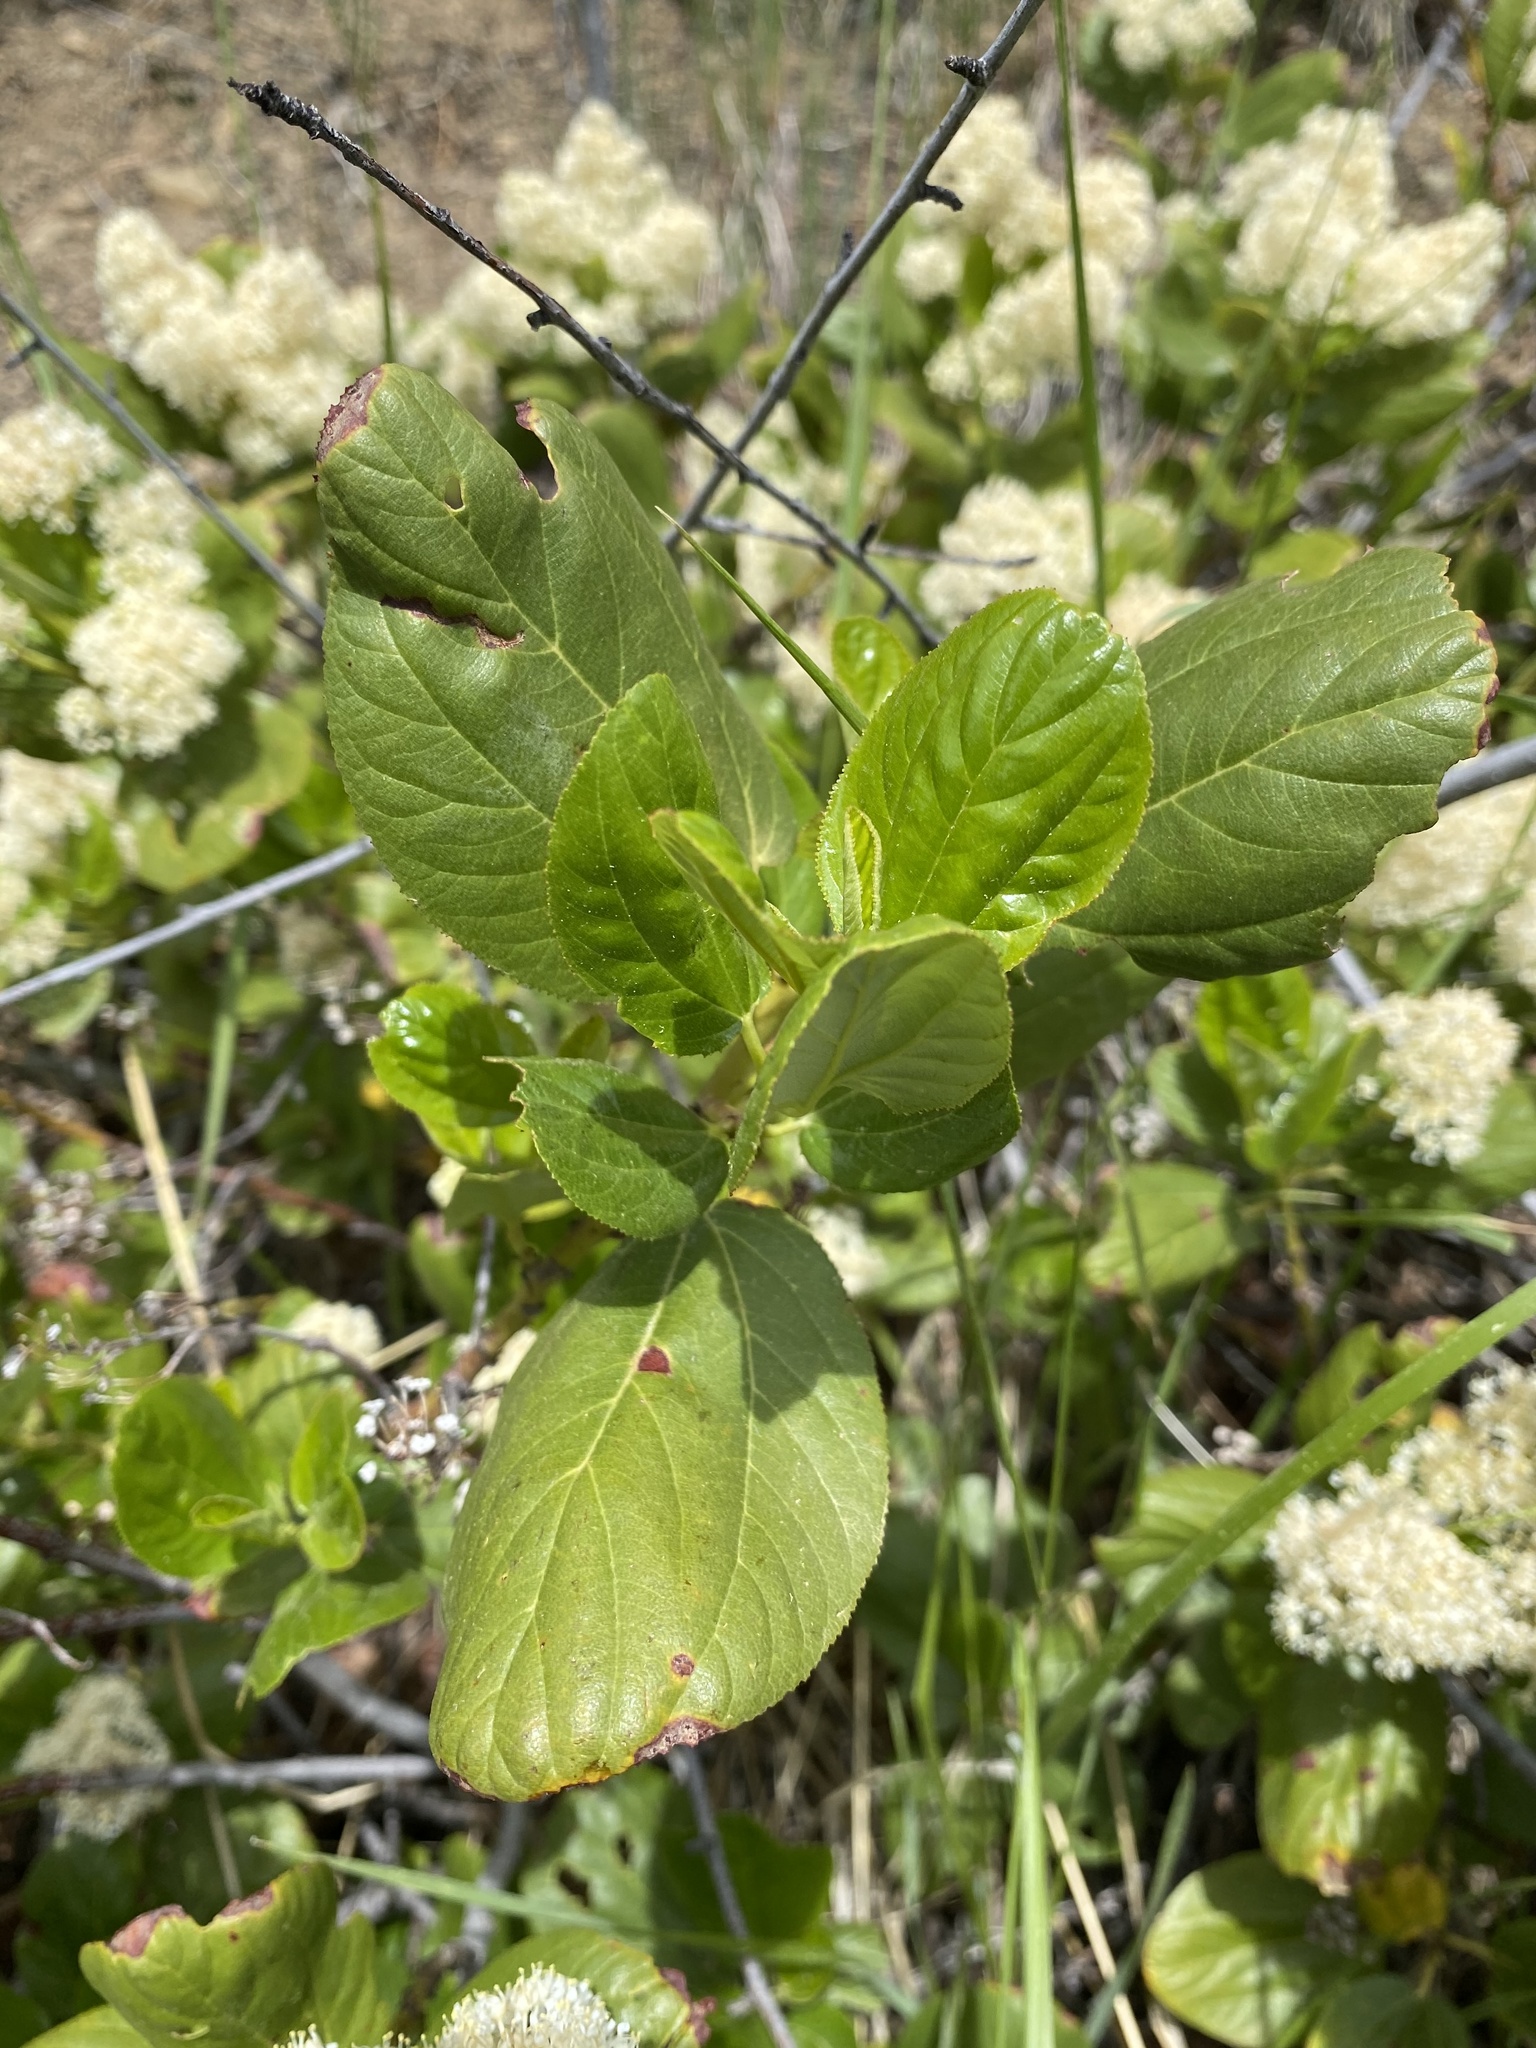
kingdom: Plantae
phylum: Tracheophyta
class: Magnoliopsida
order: Rosales
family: Rhamnaceae
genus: Ceanothus
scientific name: Ceanothus velutinus
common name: Snowbrush
